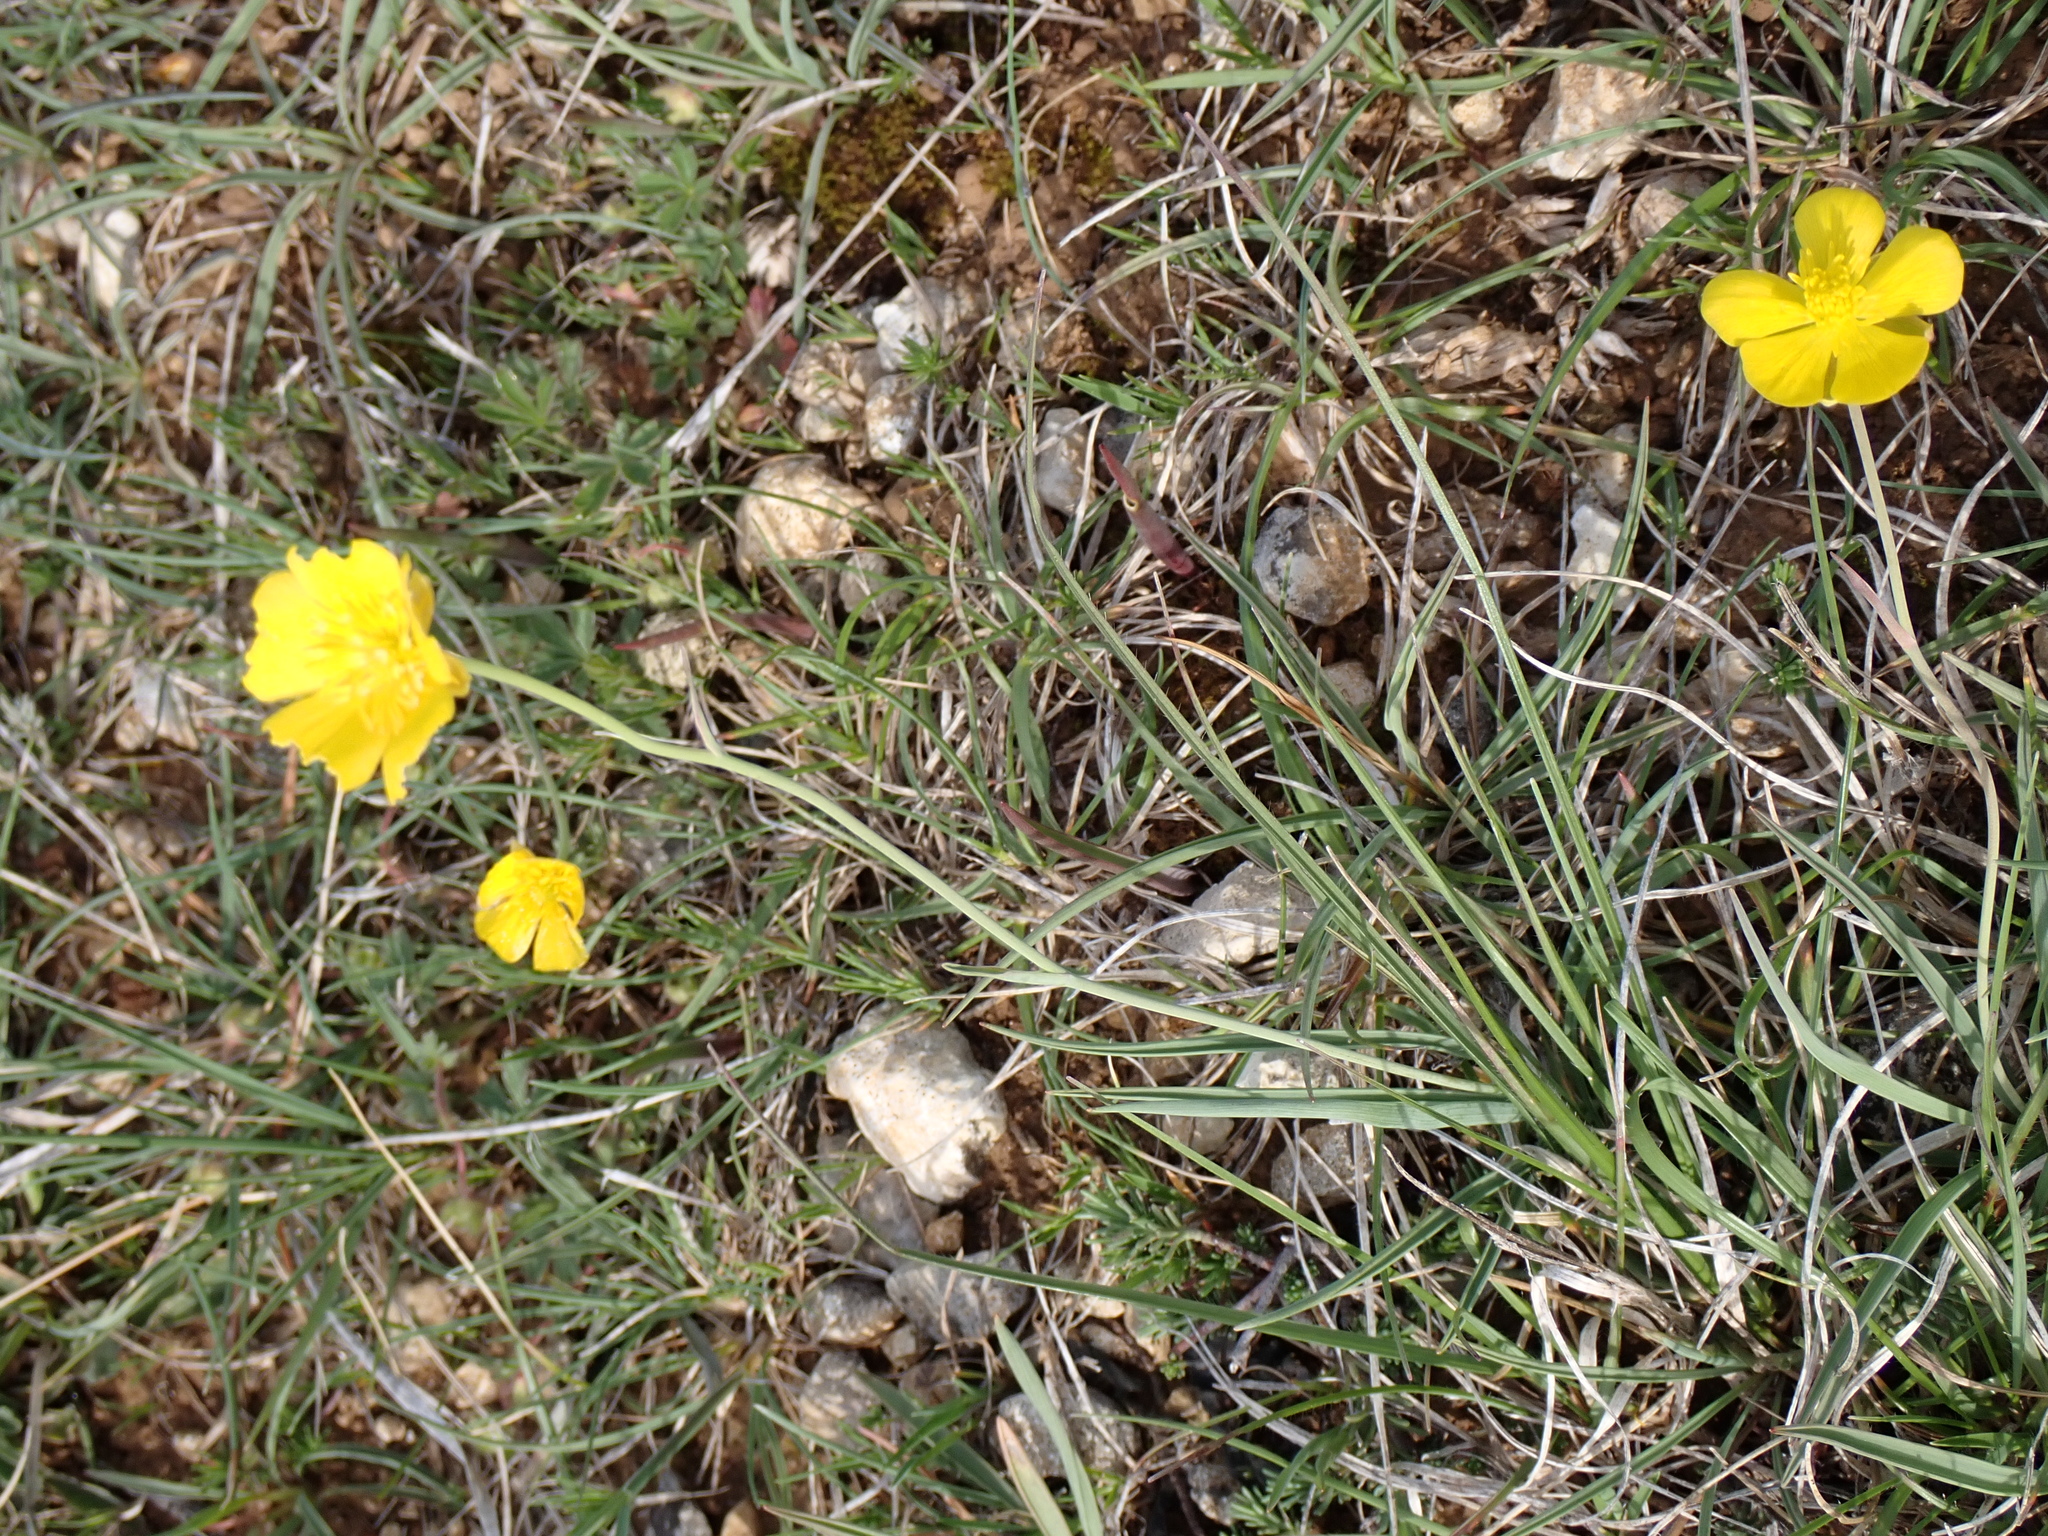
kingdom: Plantae
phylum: Tracheophyta
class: Magnoliopsida
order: Ranunculales
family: Ranunculaceae
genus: Ranunculus
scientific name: Ranunculus gramineus
